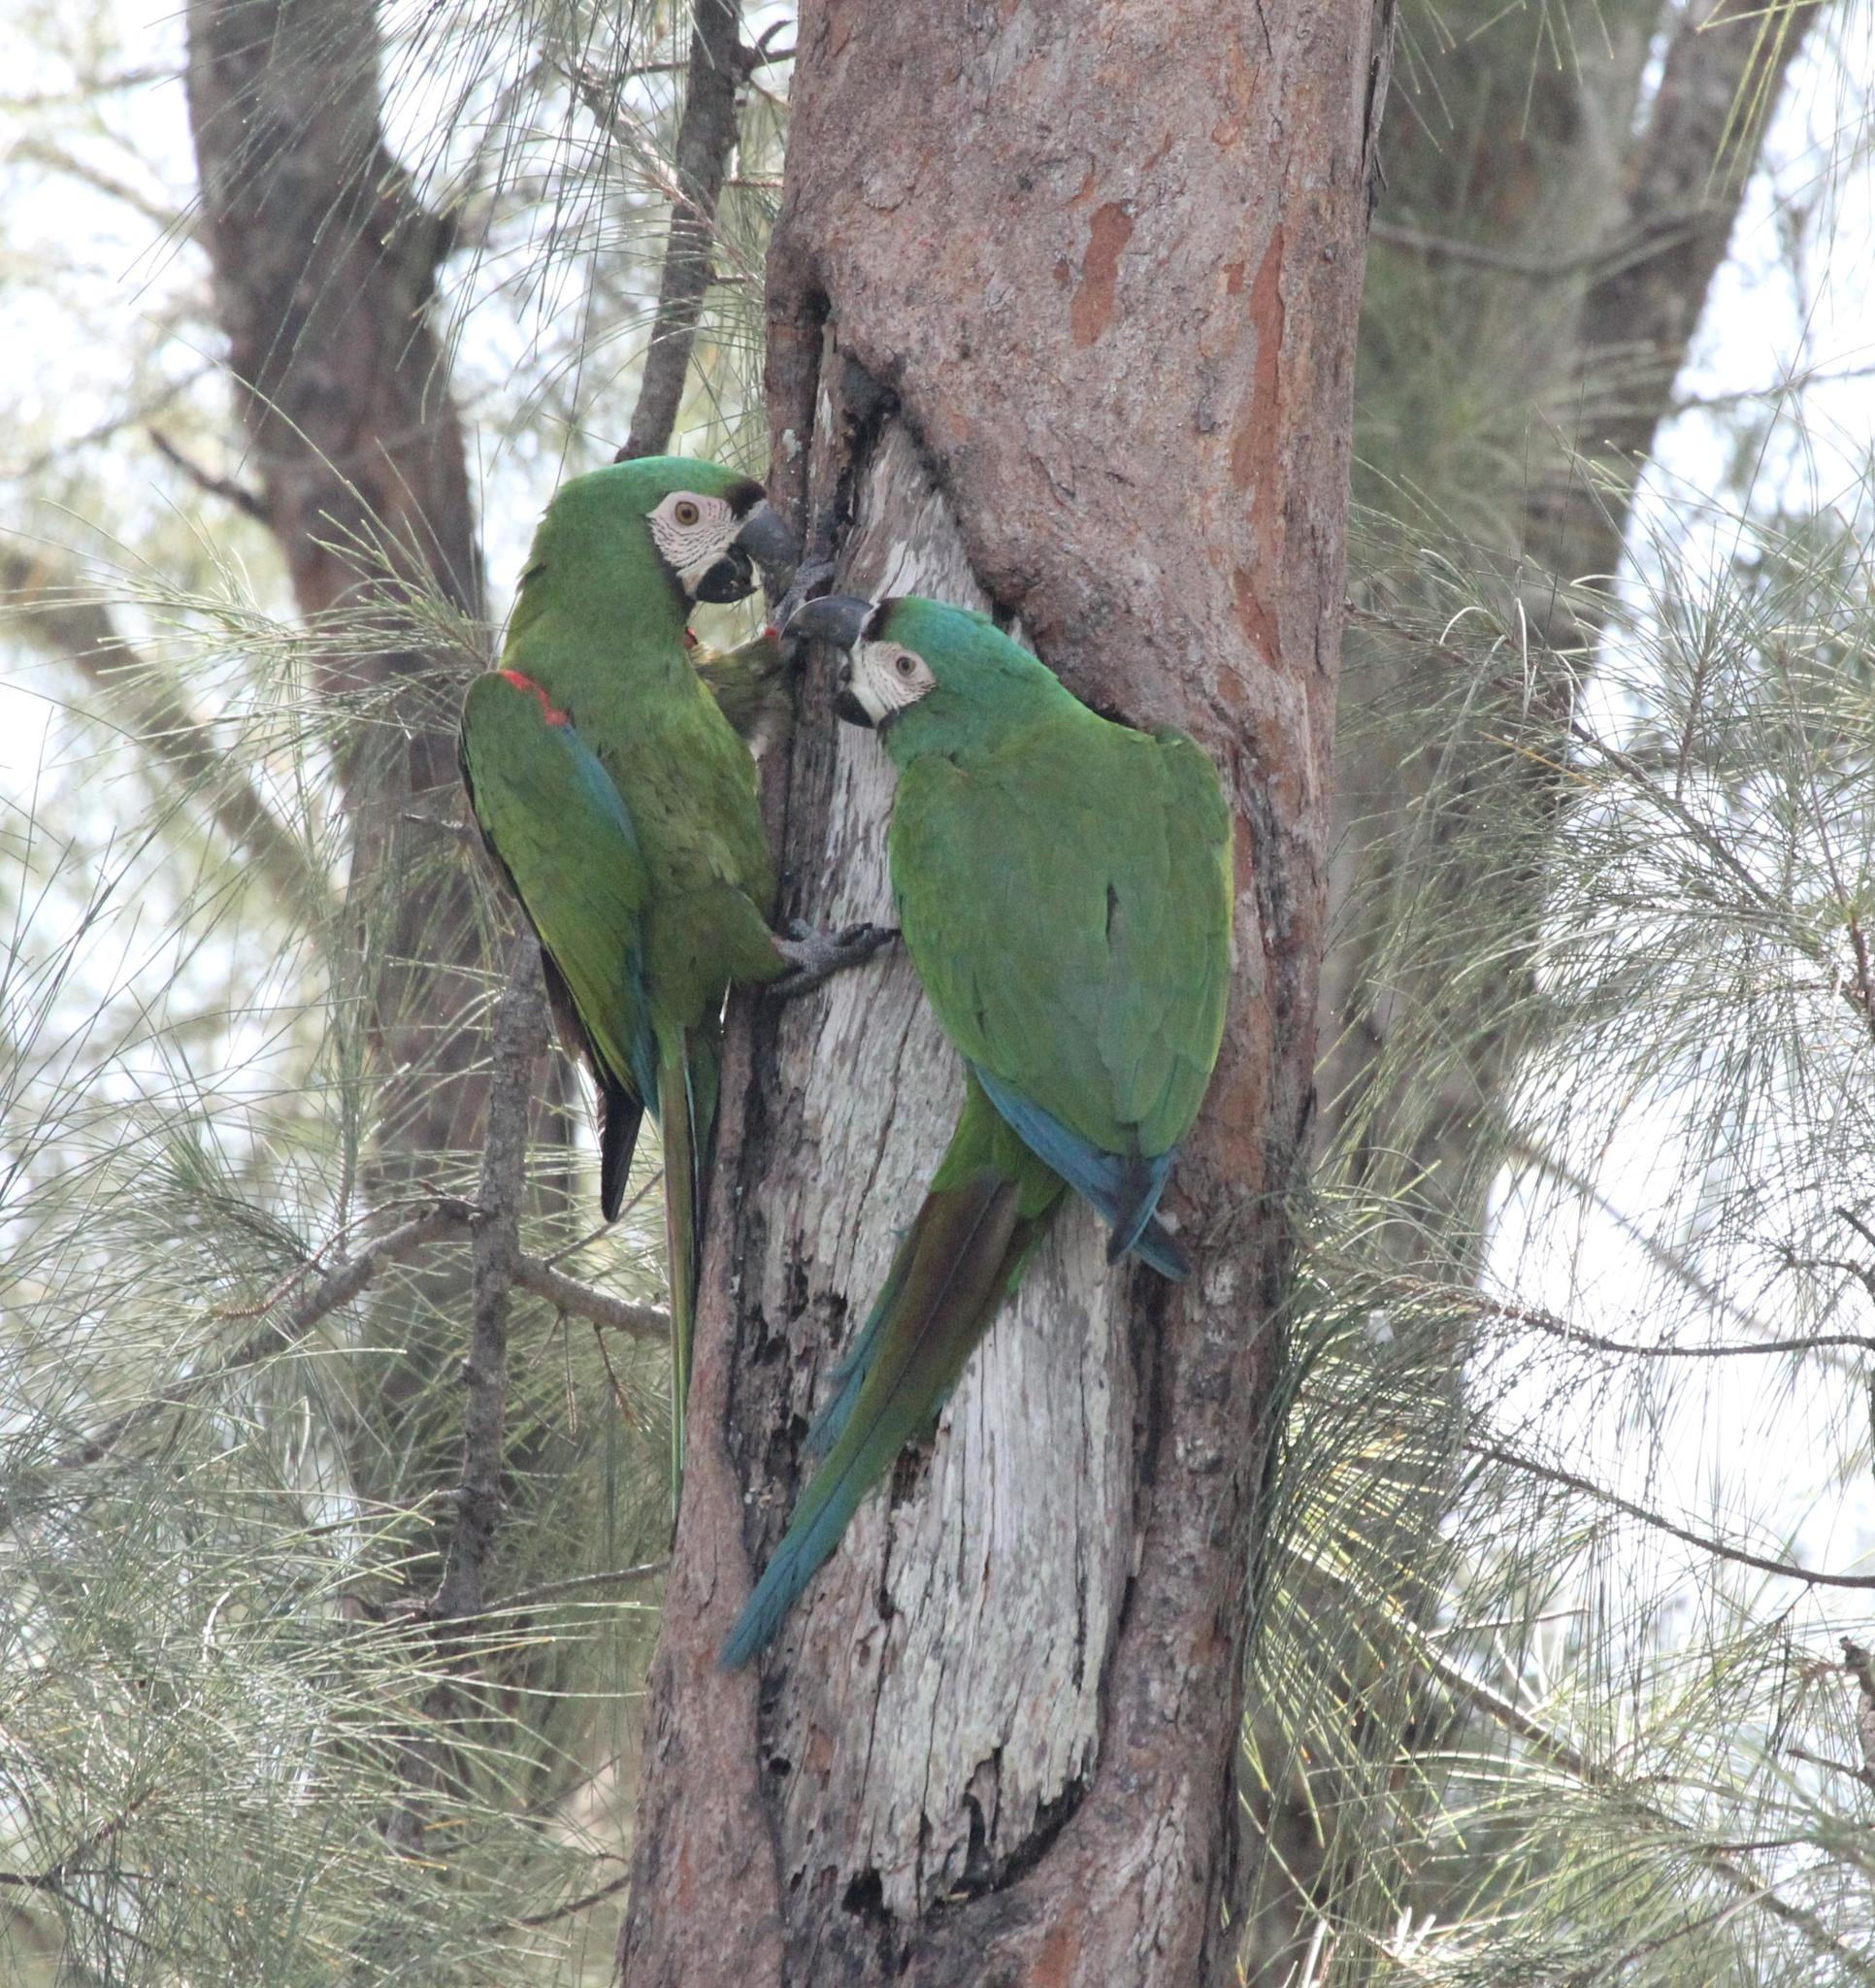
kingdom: Animalia
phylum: Chordata
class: Aves
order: Psittaciformes
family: Psittacidae
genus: Ara
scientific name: Ara severus
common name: Chestnut-fronted macaw
